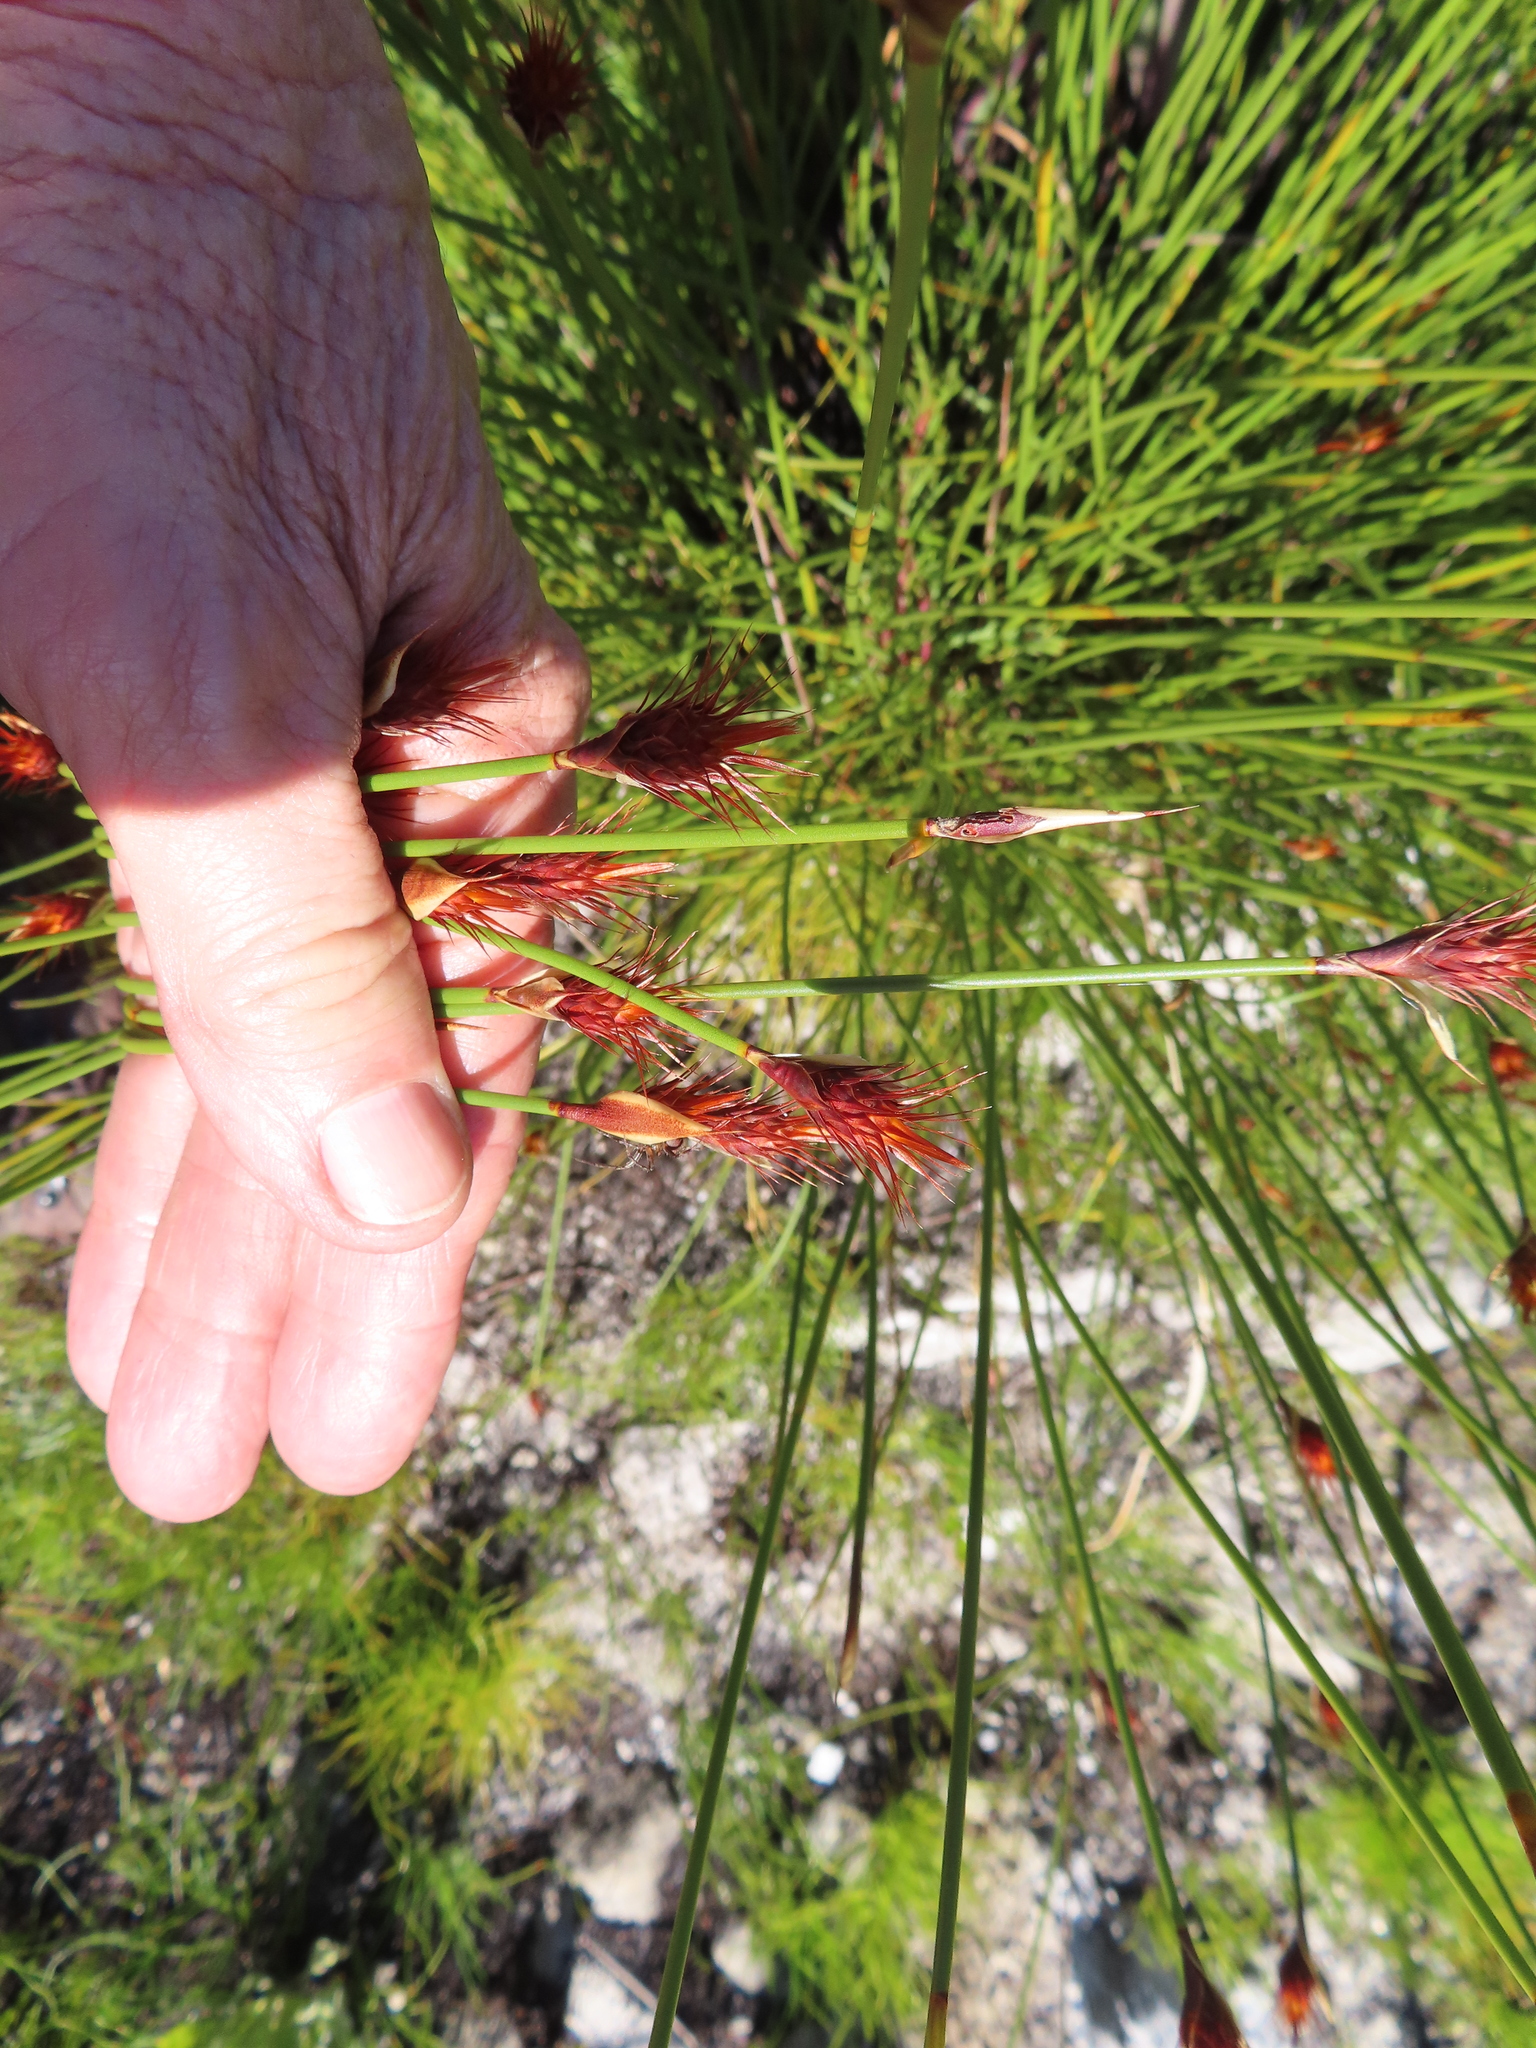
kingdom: Plantae
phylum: Tracheophyta
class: Liliopsida
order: Poales
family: Restionaceae
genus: Hypodiscus
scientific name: Hypodiscus aristatus
